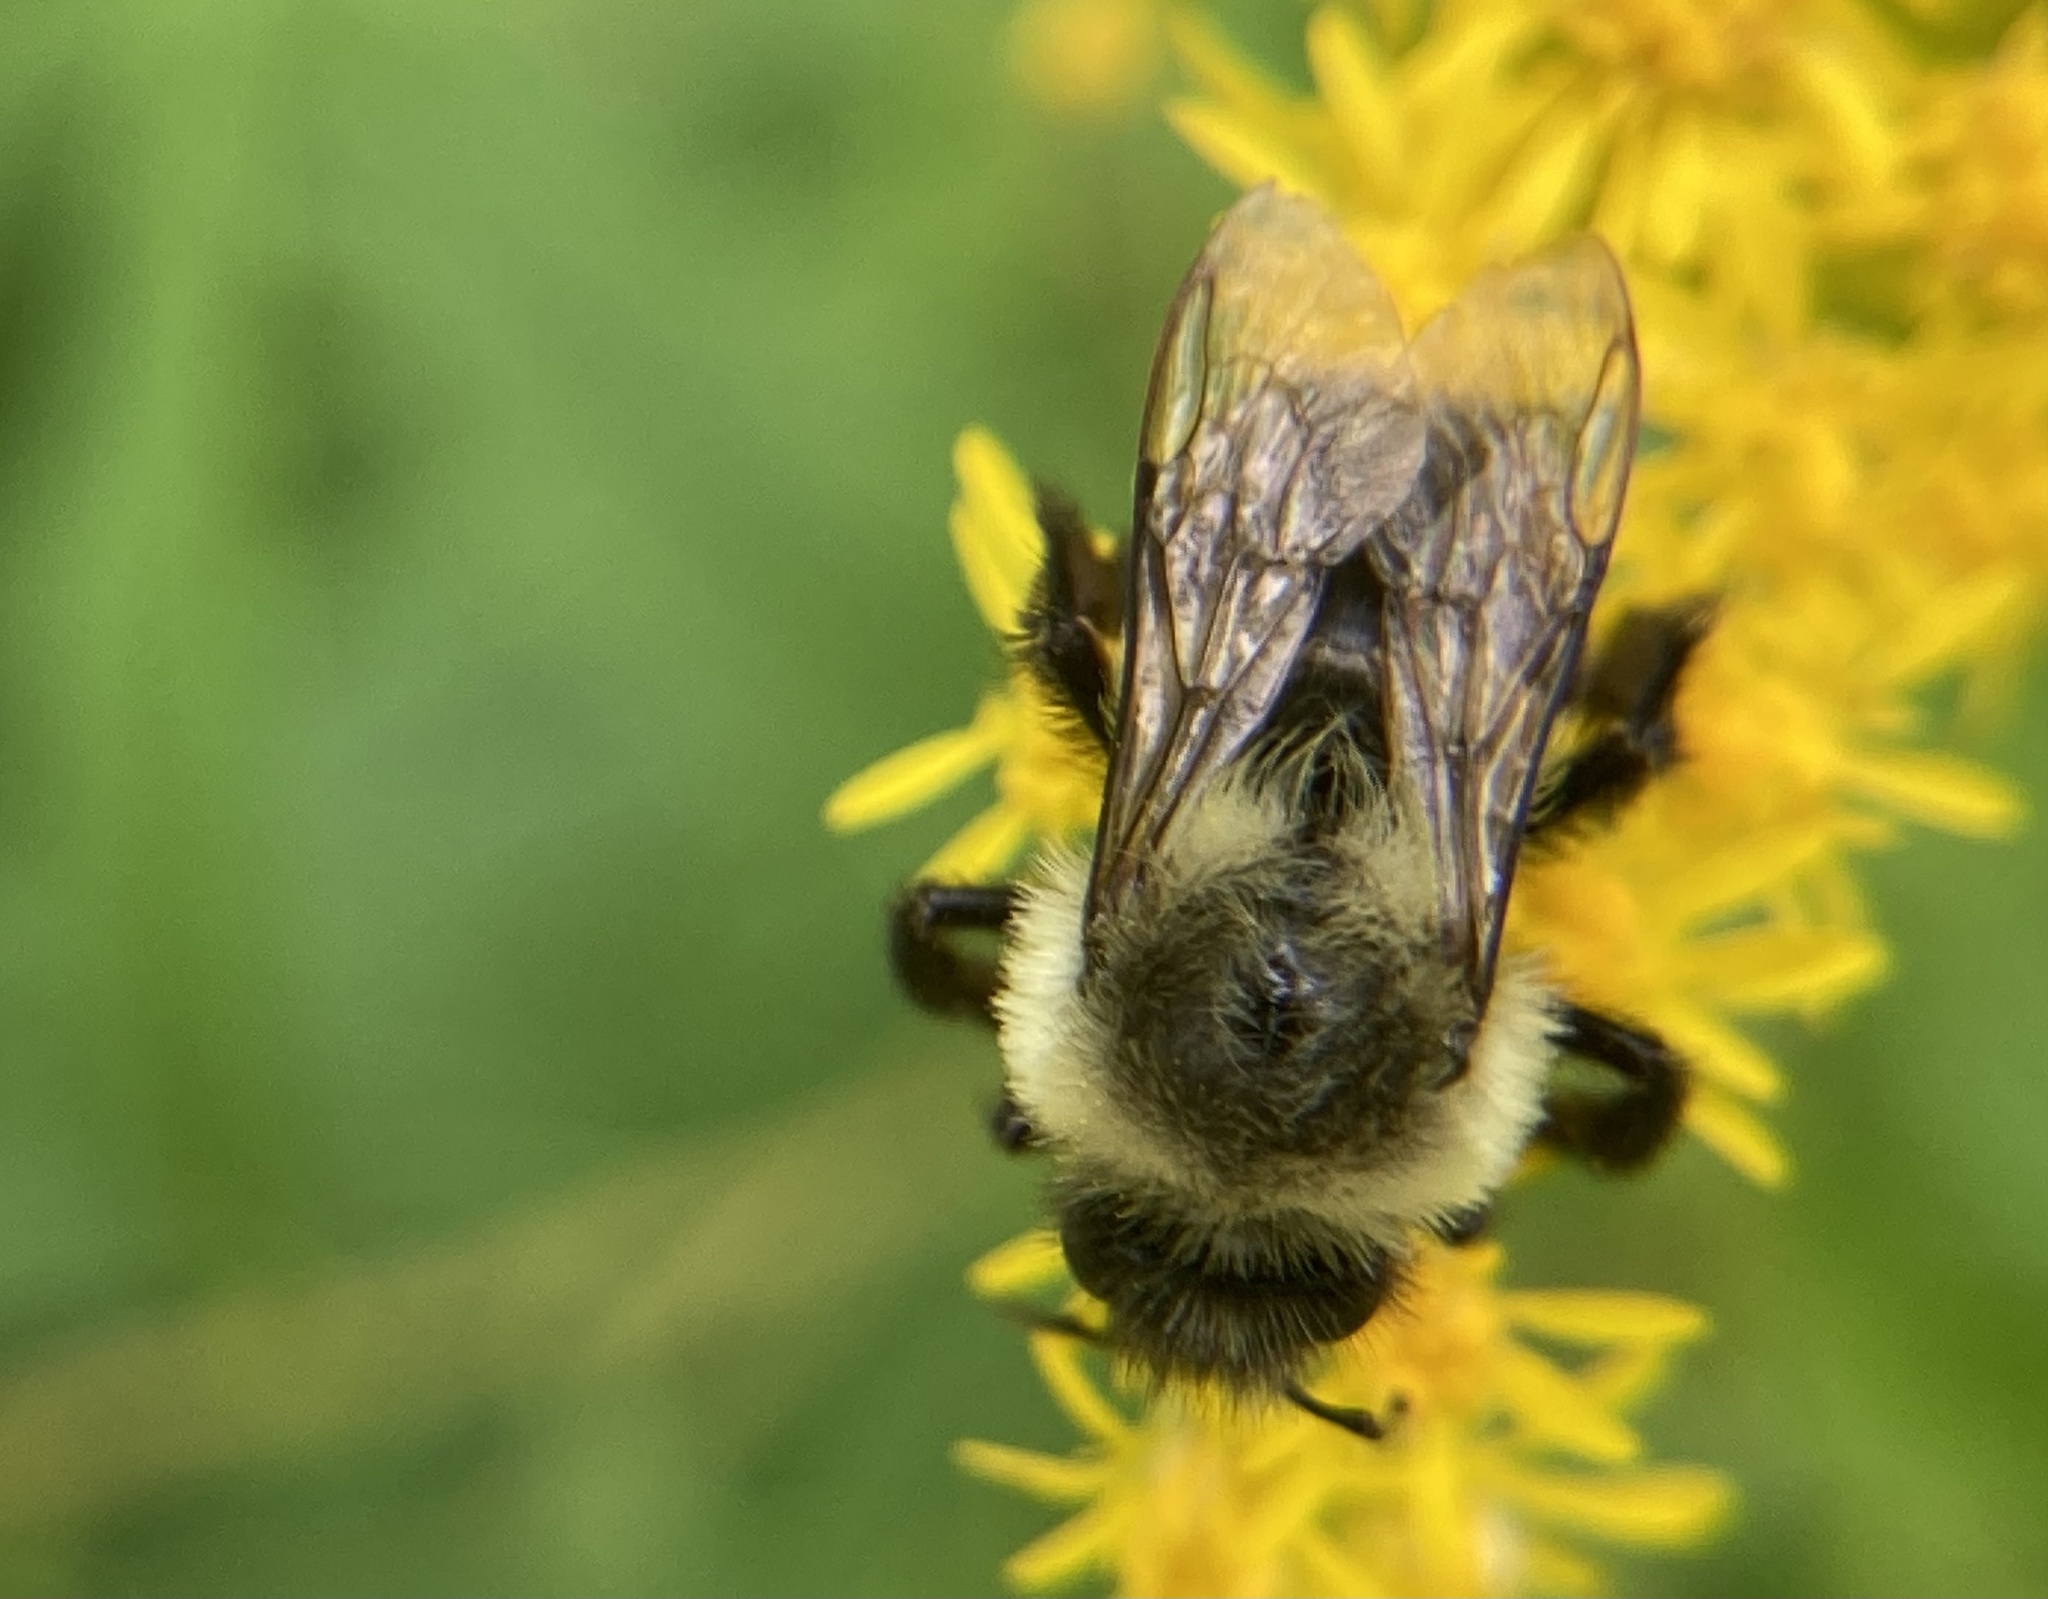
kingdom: Animalia
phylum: Arthropoda
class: Insecta
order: Hymenoptera
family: Apidae
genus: Bombus
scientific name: Bombus impatiens
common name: Common eastern bumble bee
